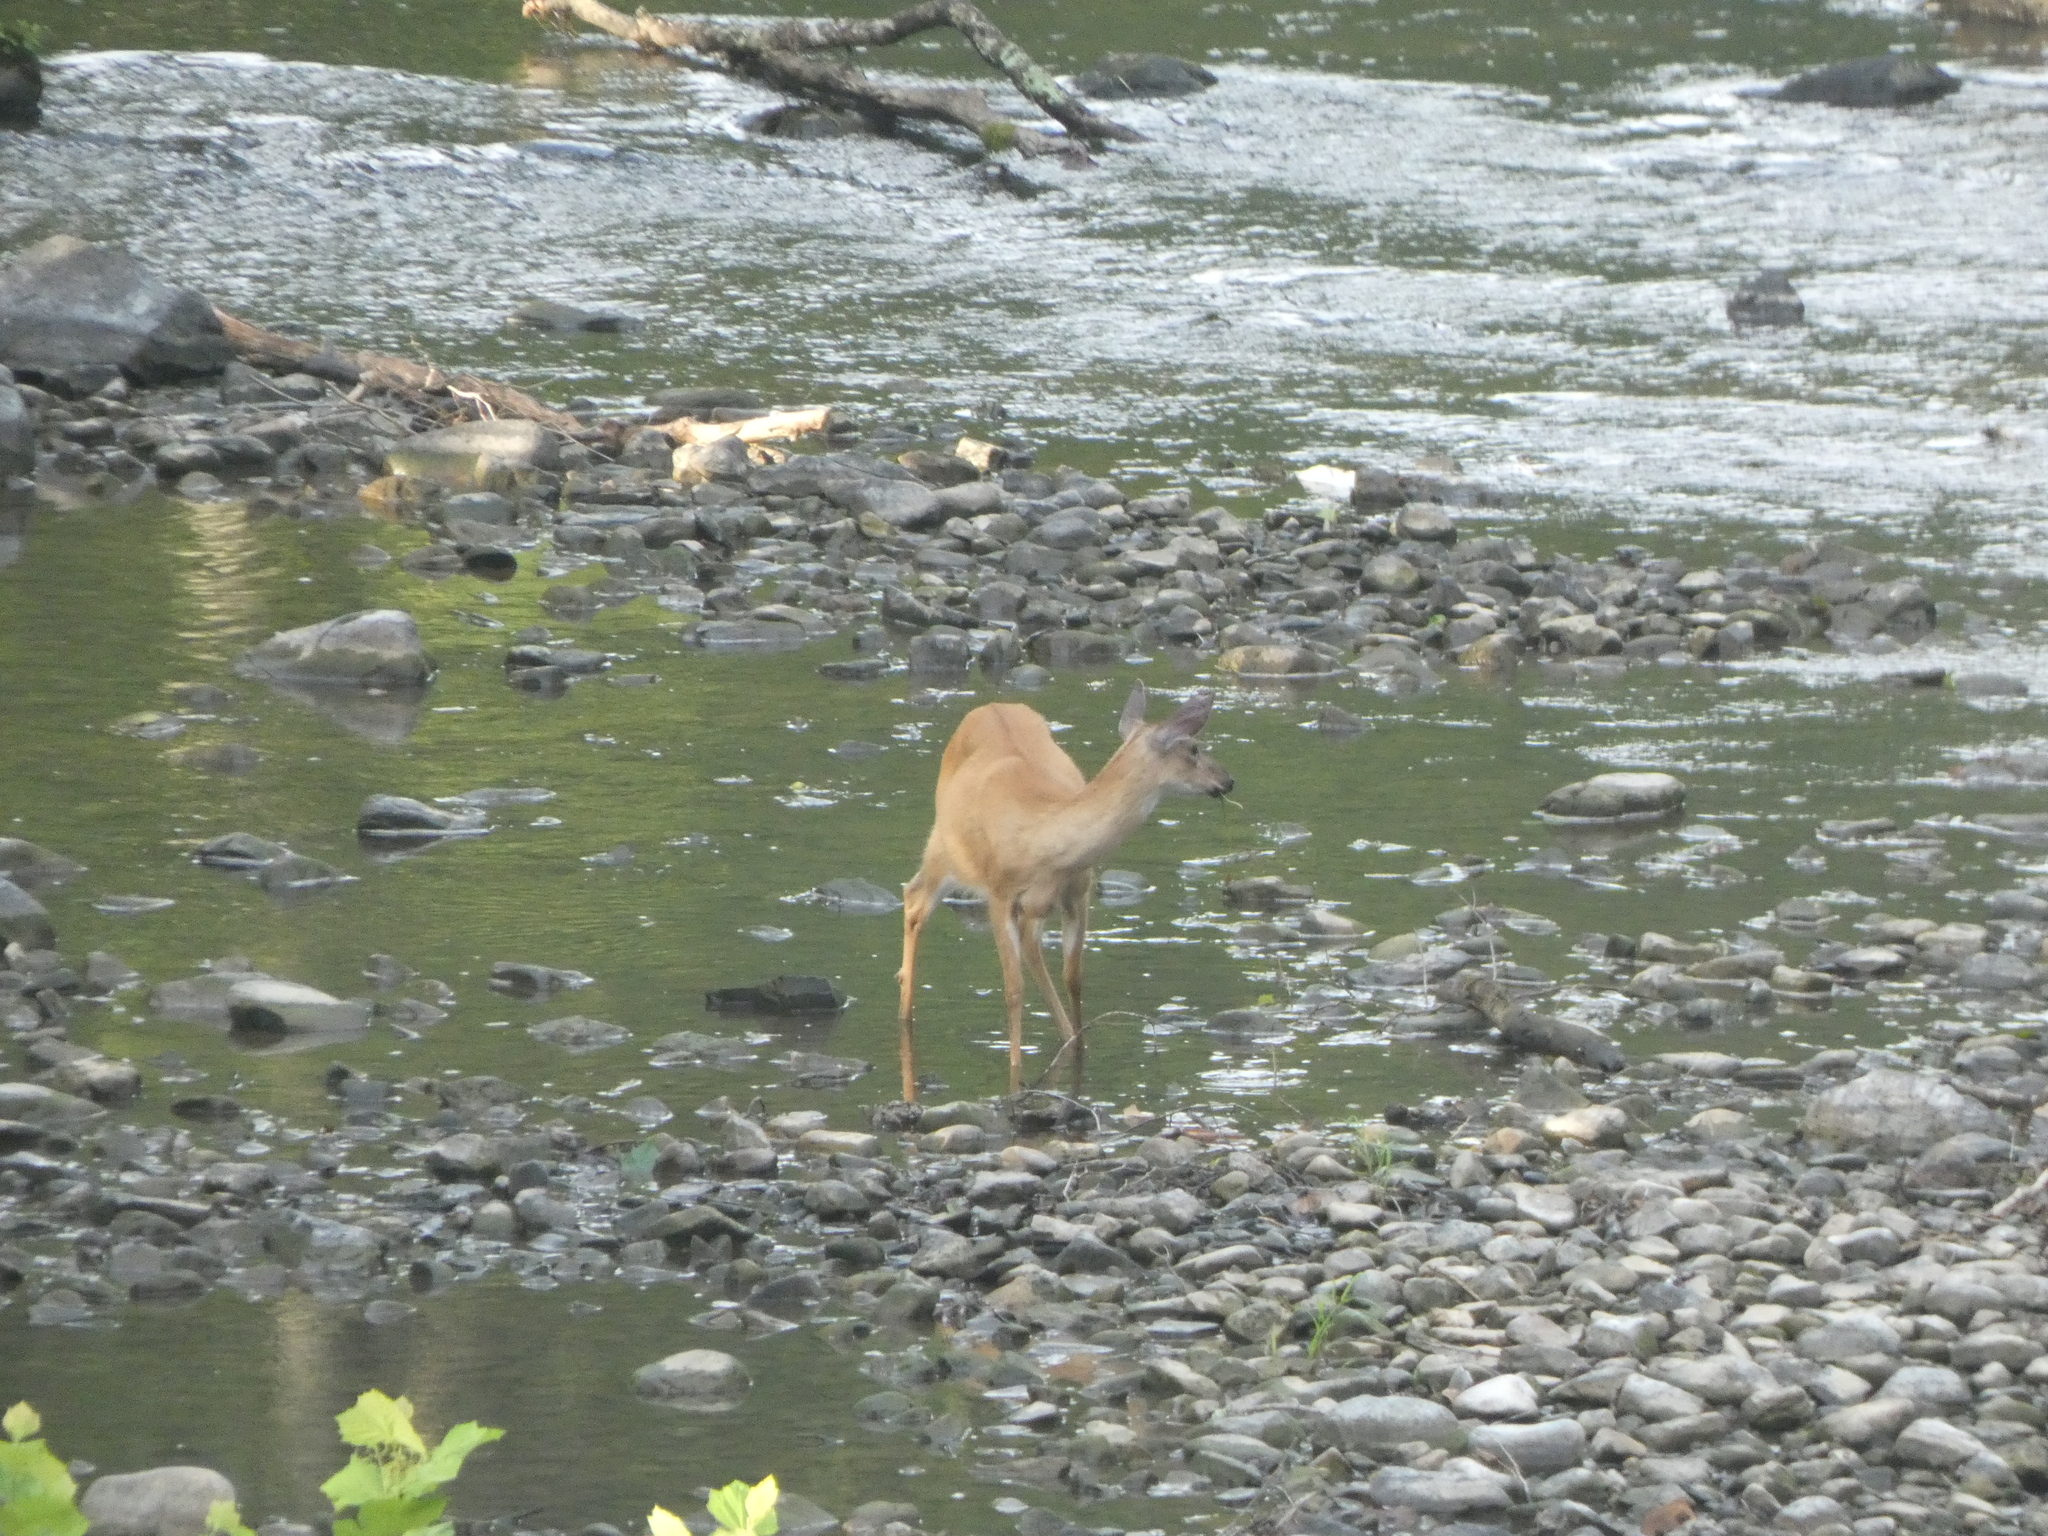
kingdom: Animalia
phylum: Chordata
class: Mammalia
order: Artiodactyla
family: Cervidae
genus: Odocoileus
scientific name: Odocoileus virginianus
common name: White-tailed deer
